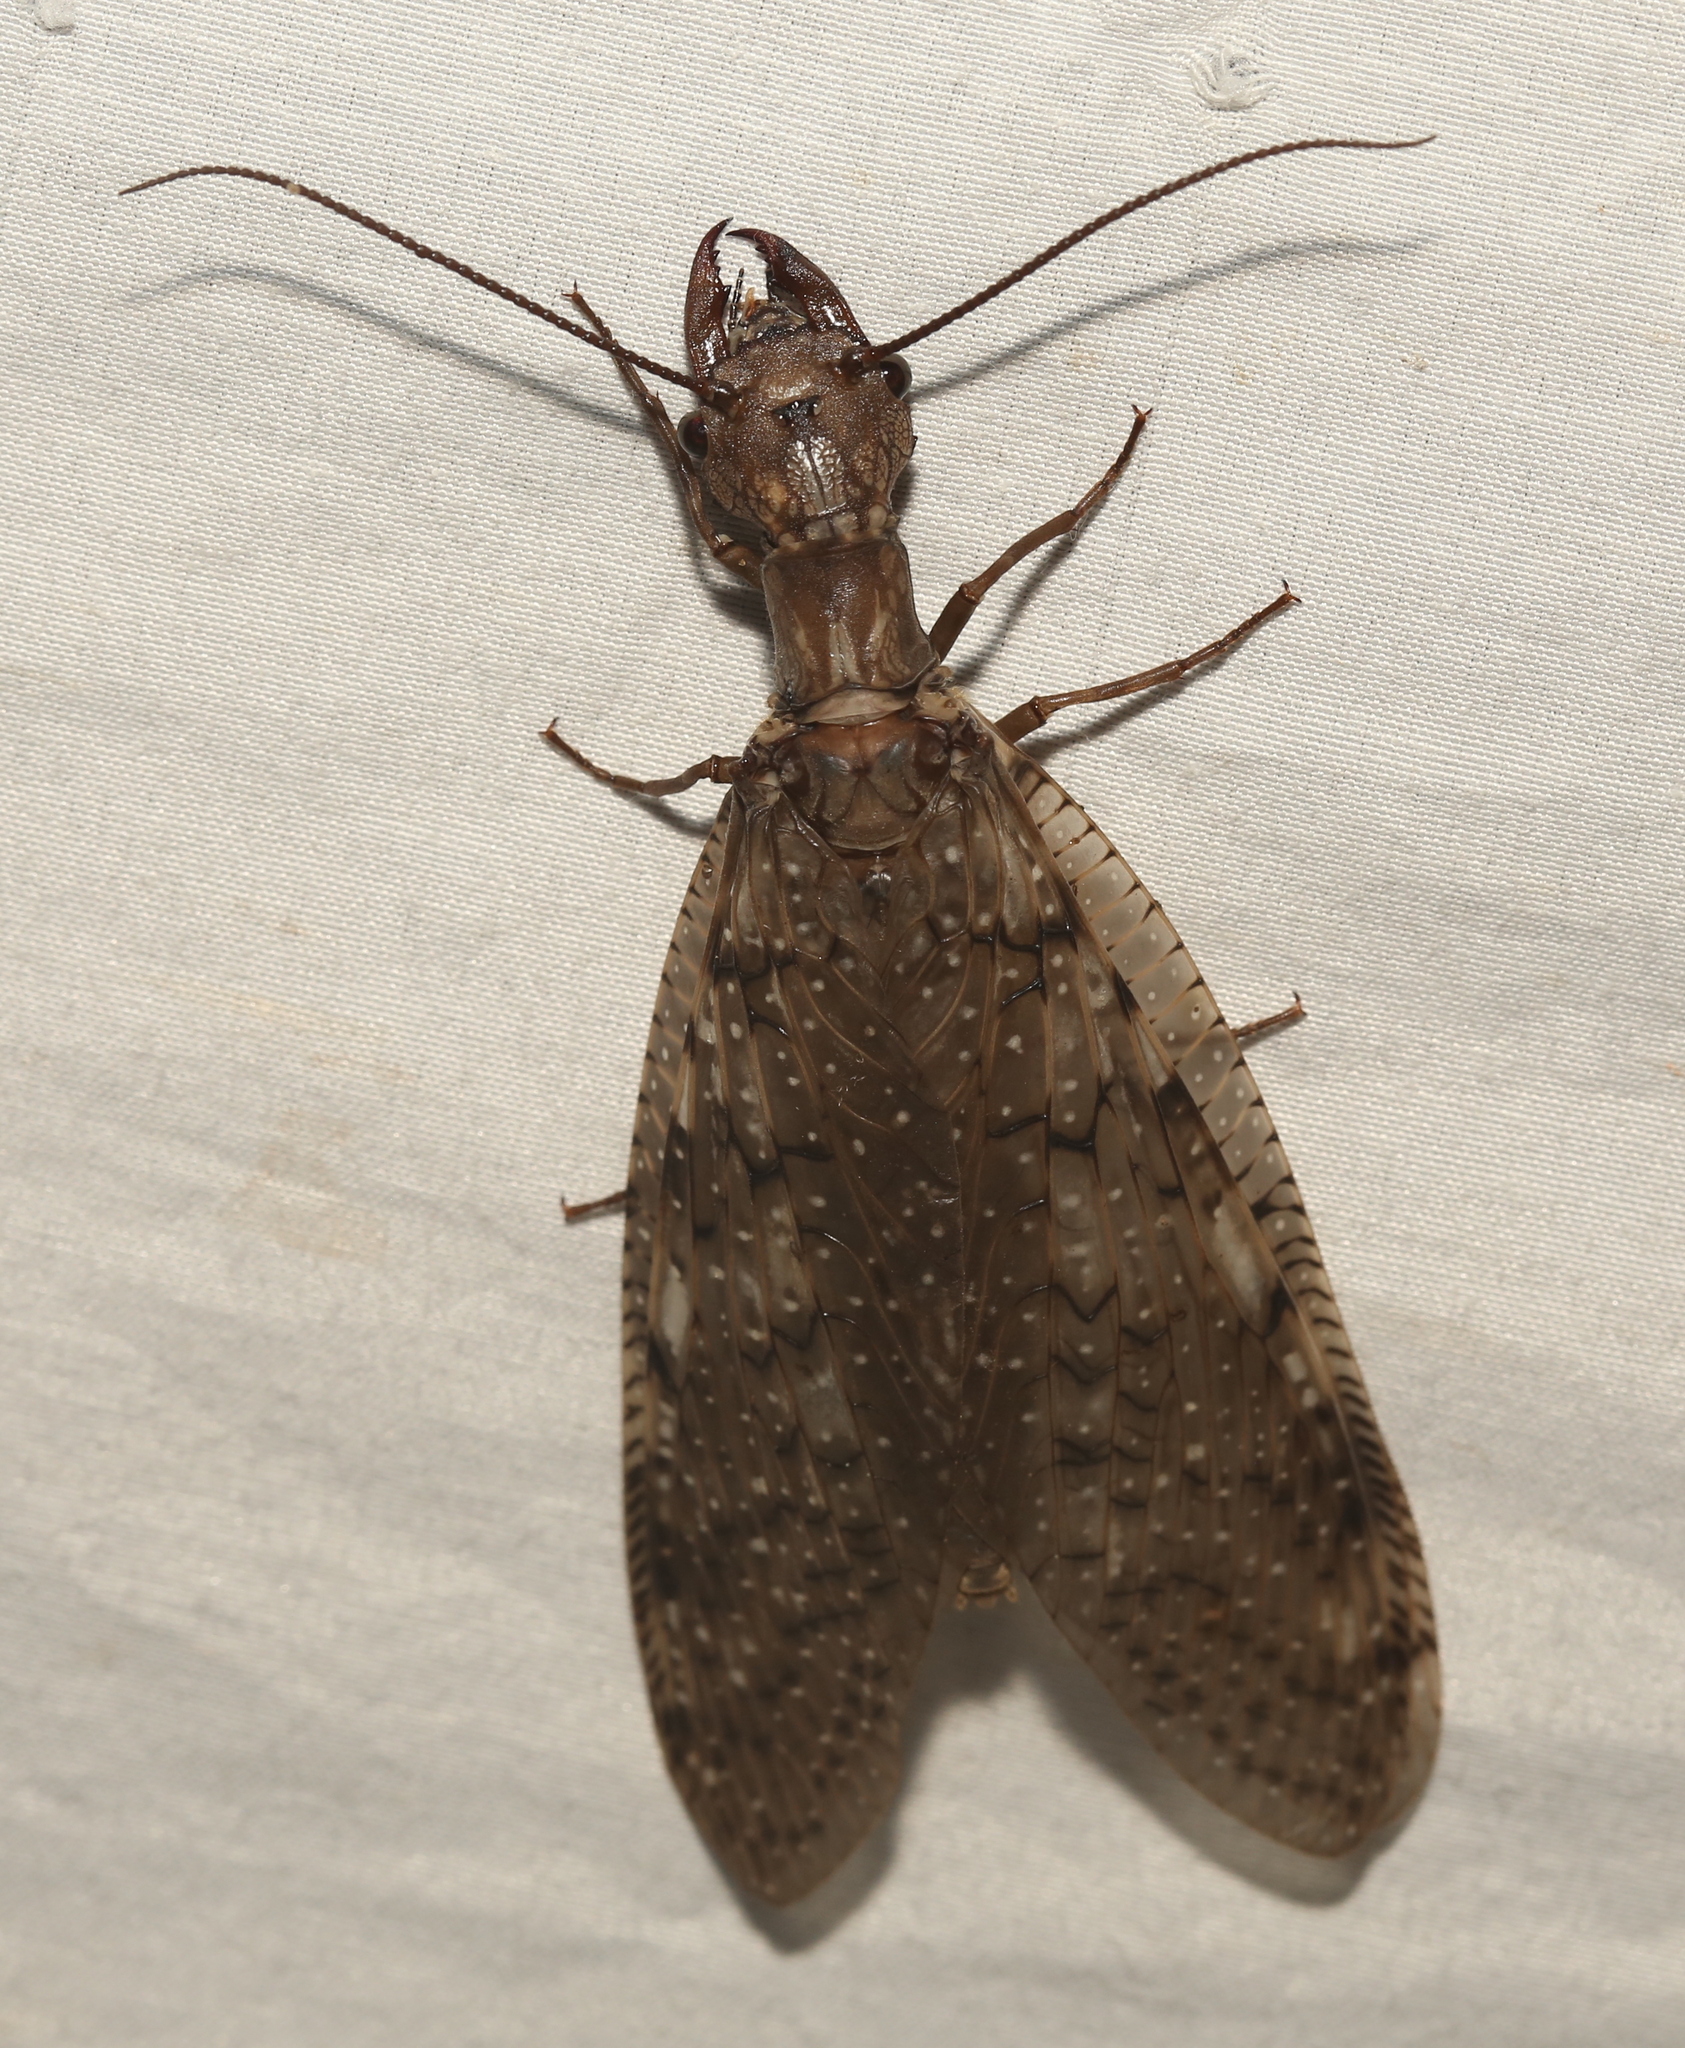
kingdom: Animalia
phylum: Arthropoda
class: Insecta
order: Megaloptera
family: Corydalidae
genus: Corydalus
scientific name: Corydalus cornutus
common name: Dobsonfly
